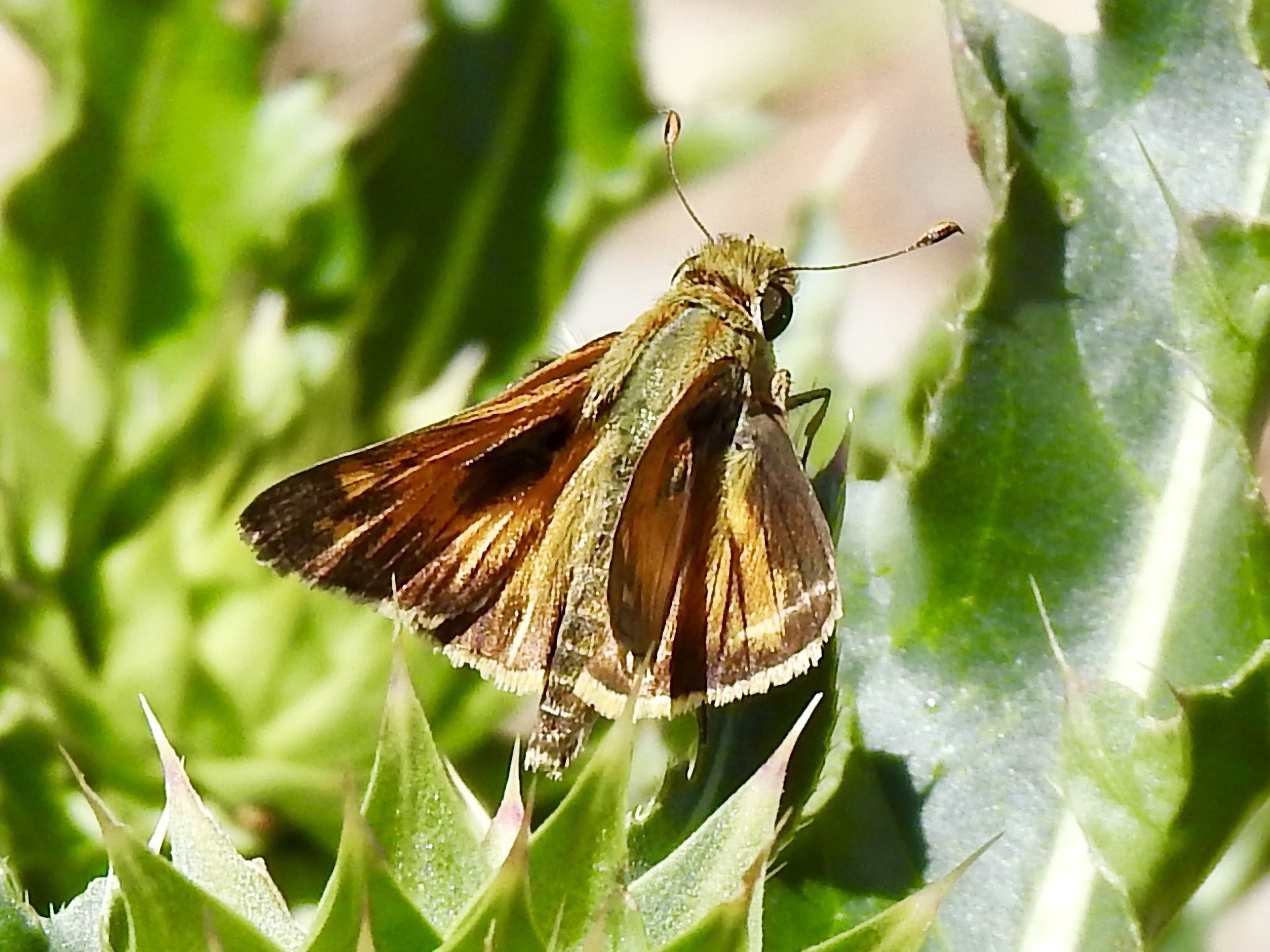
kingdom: Animalia
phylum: Arthropoda
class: Insecta
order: Lepidoptera
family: Hesperiidae
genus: Atalopedes
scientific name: Atalopedes
